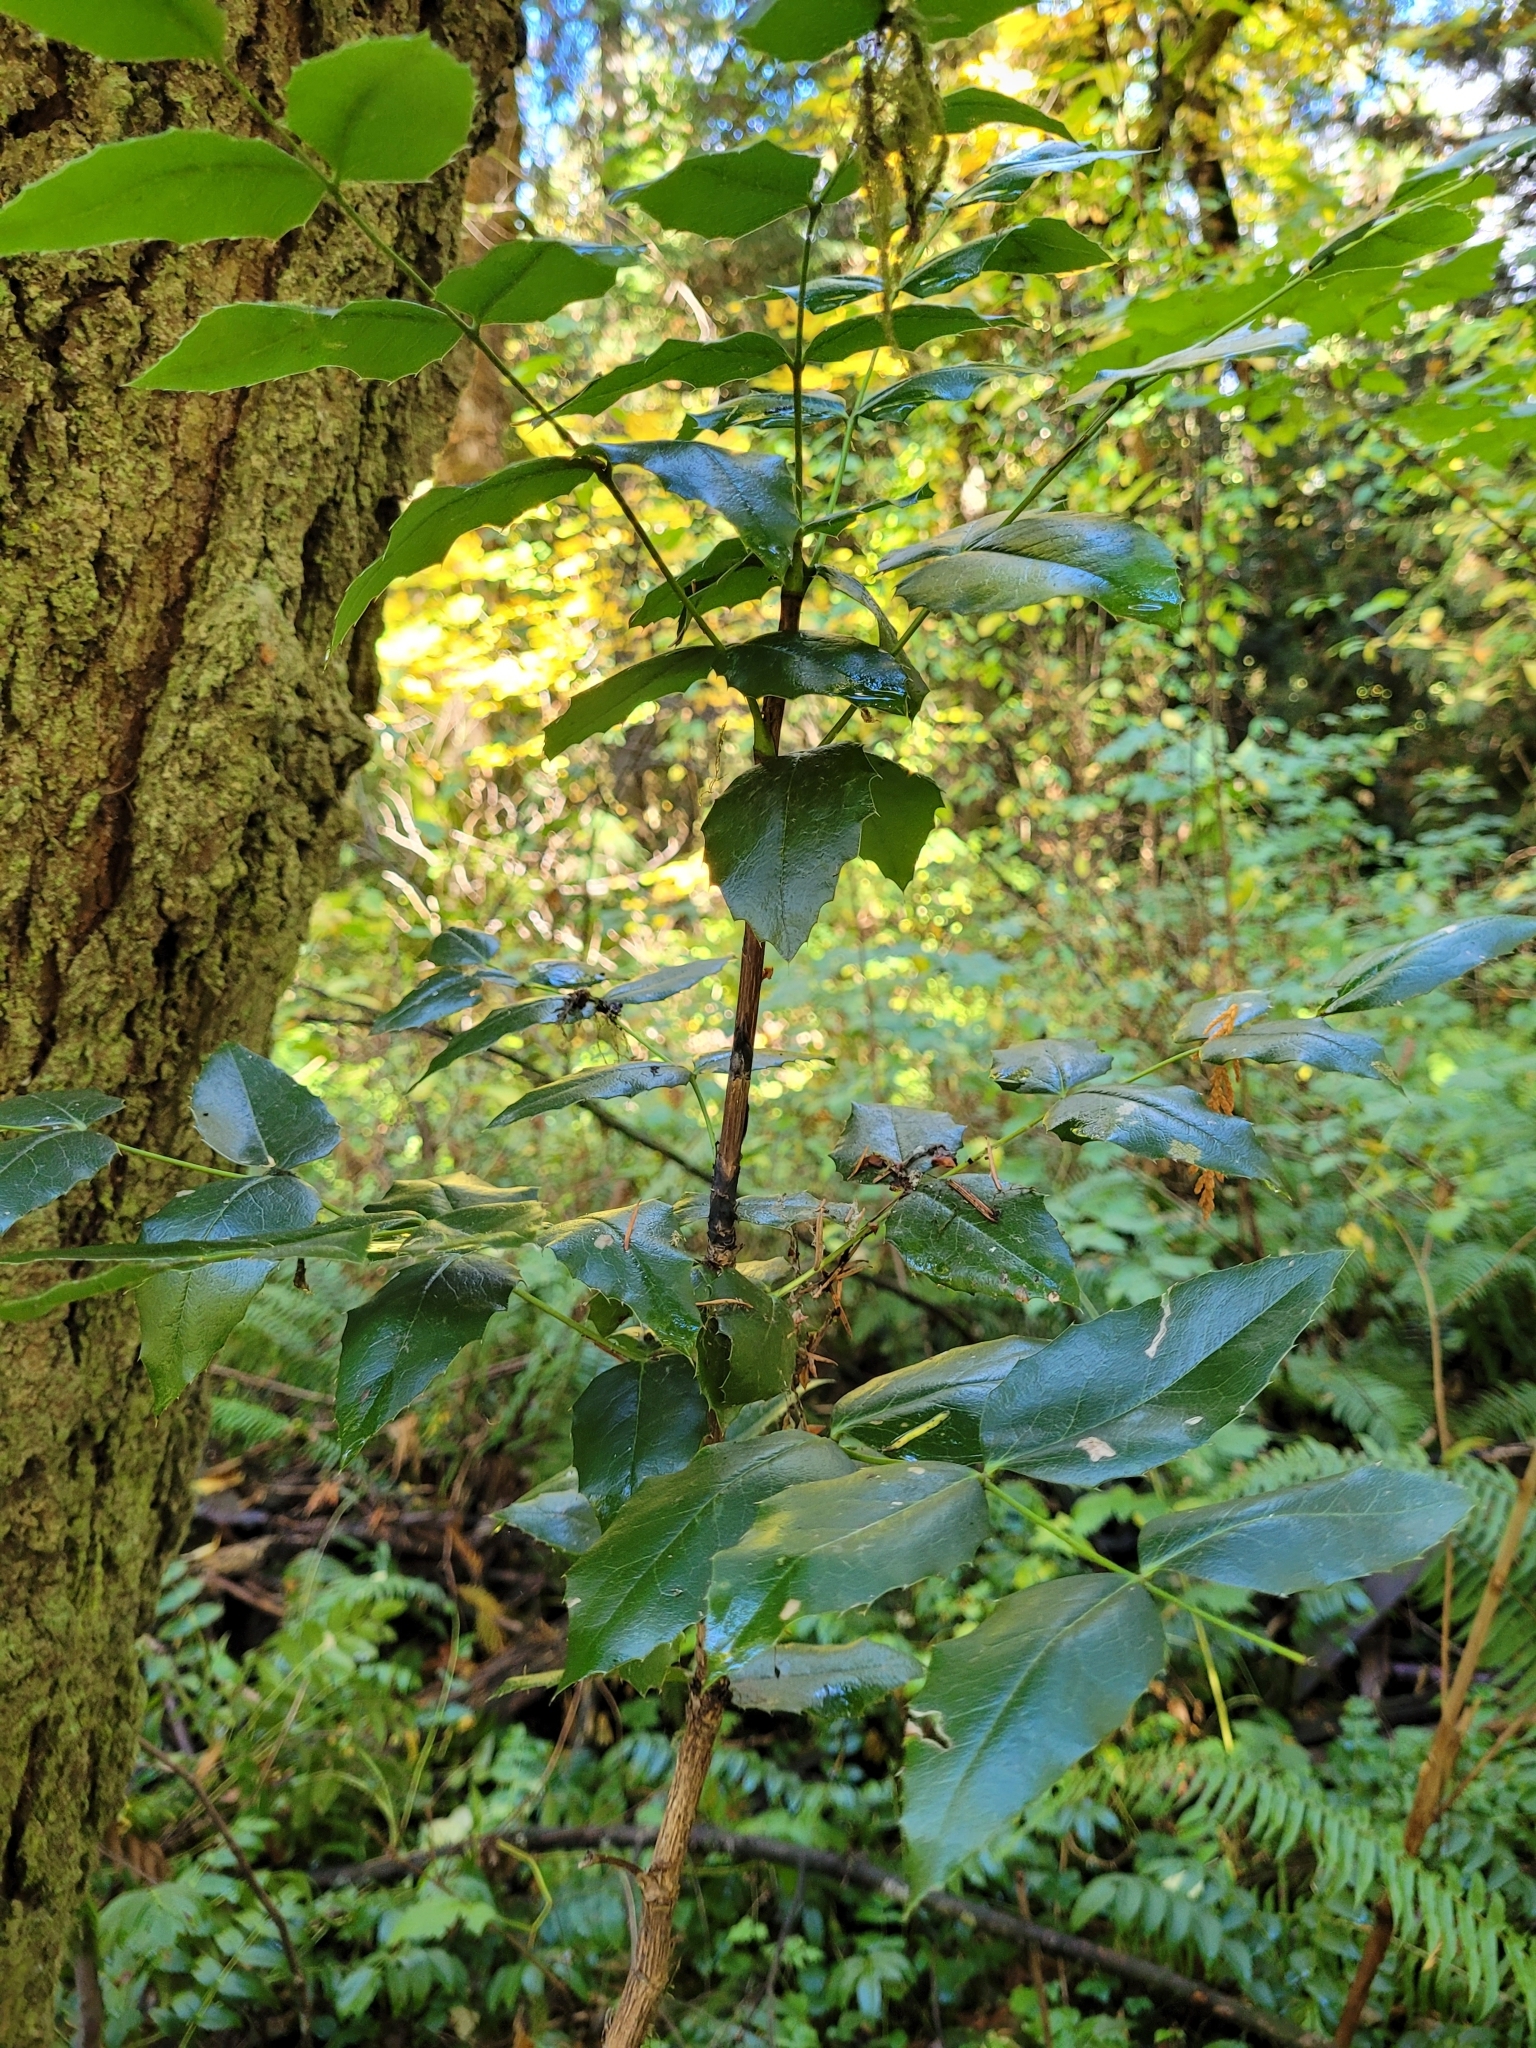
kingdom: Plantae
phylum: Tracheophyta
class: Magnoliopsida
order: Ranunculales
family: Berberidaceae
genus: Mahonia
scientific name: Mahonia aquifolium
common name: Oregon-grape
